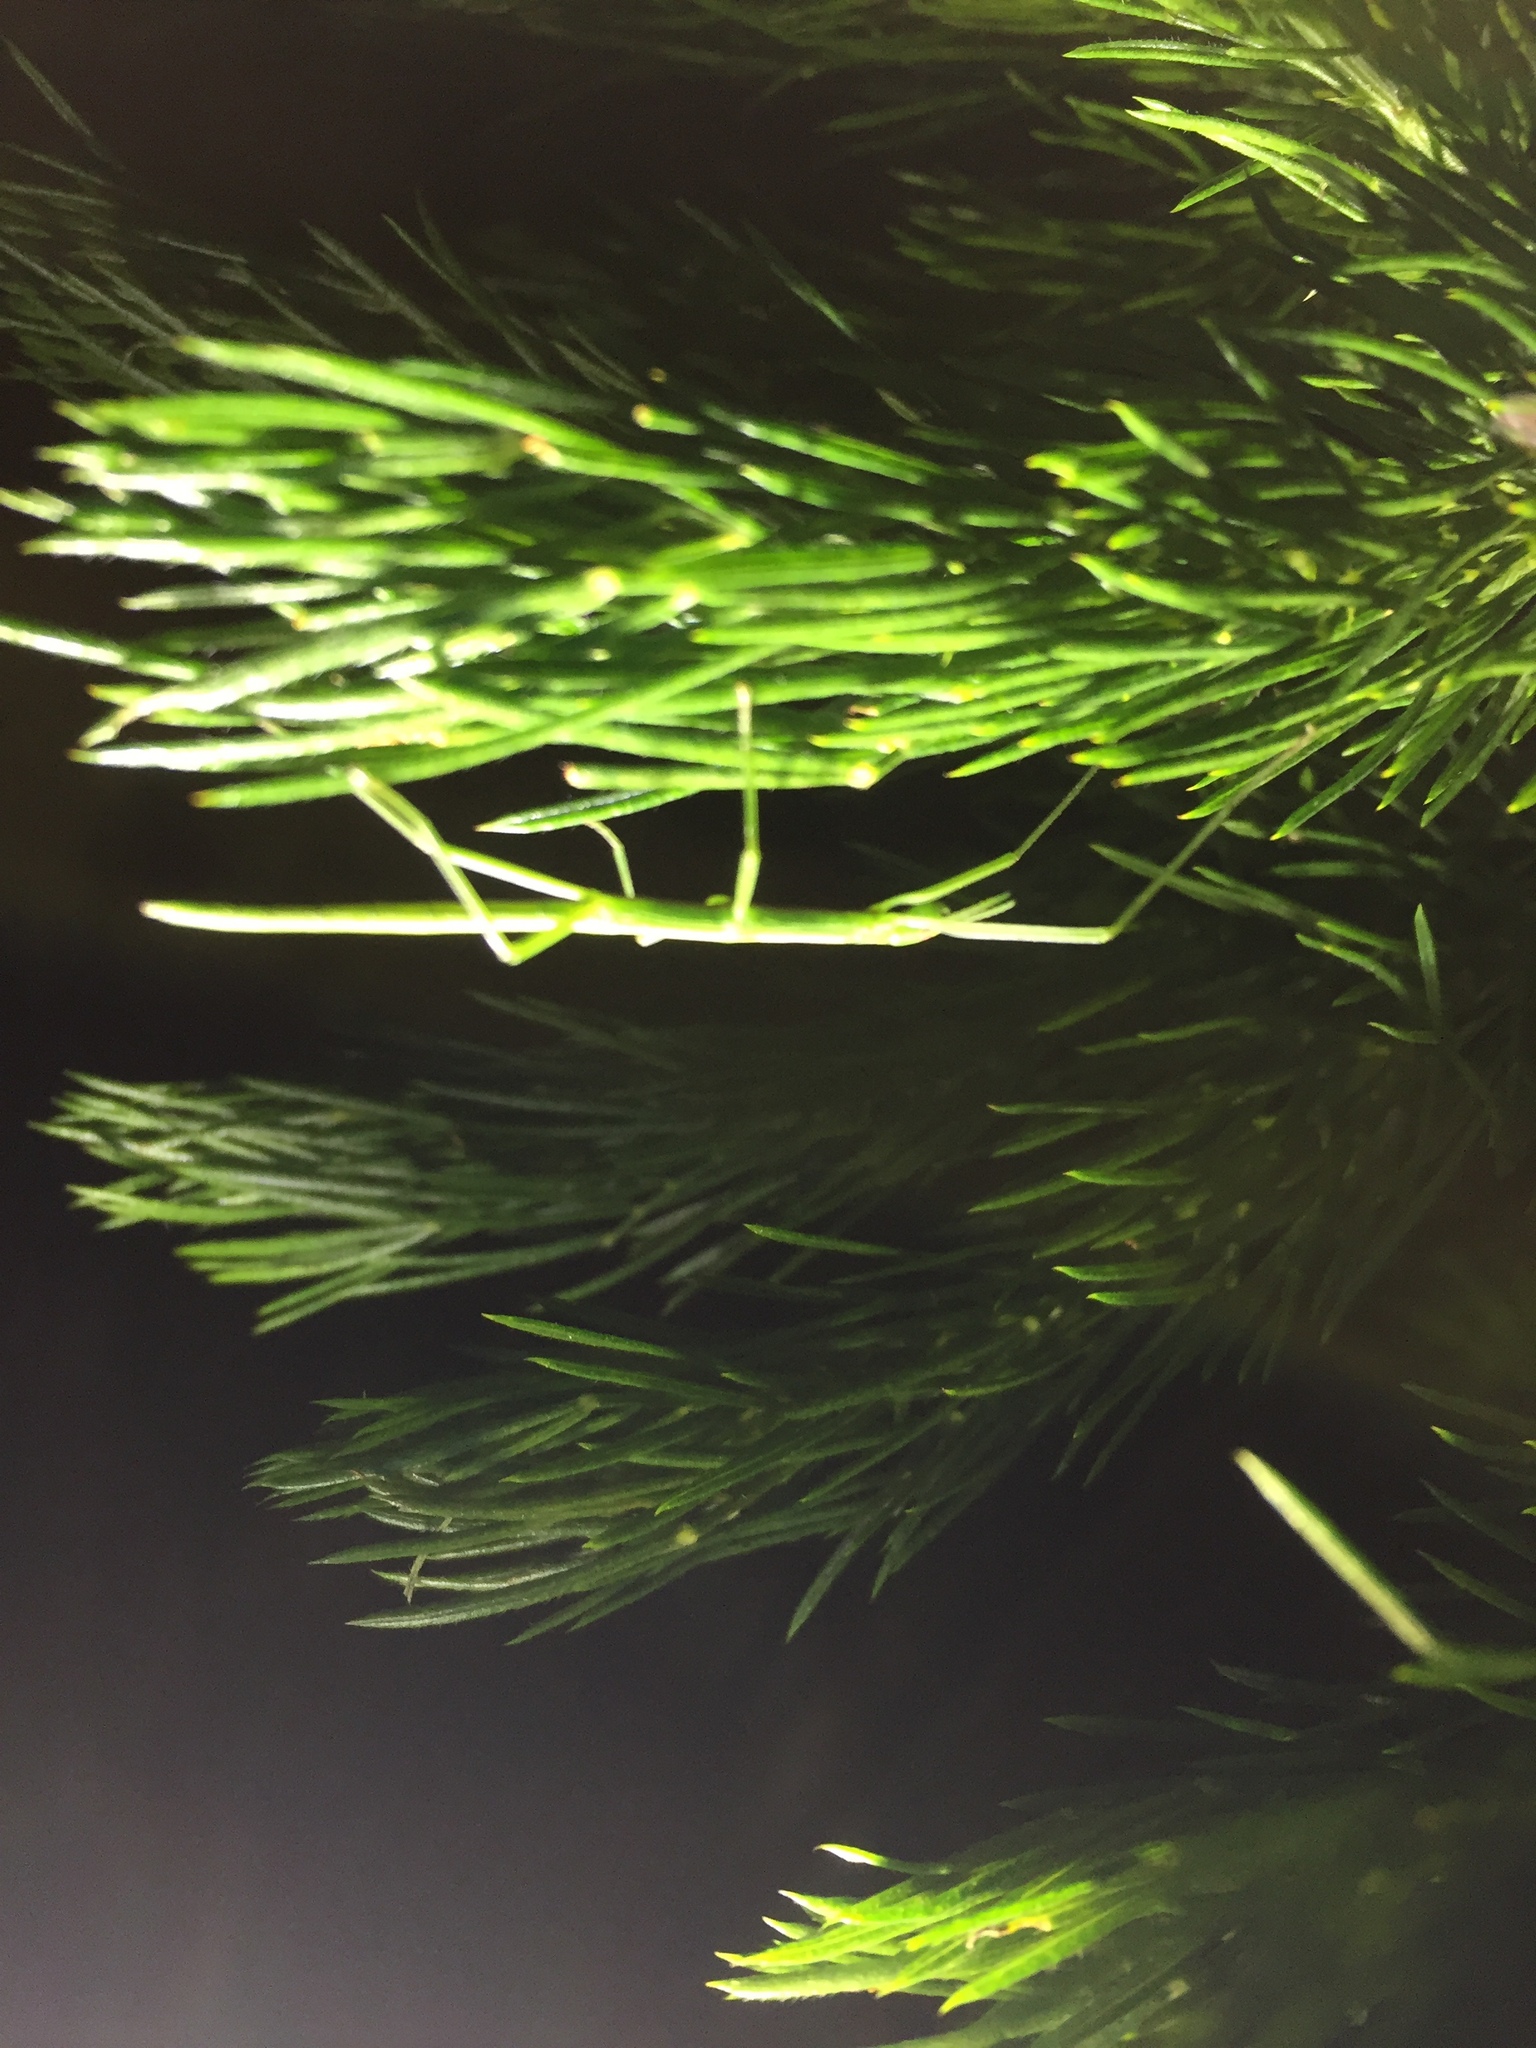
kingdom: Animalia
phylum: Arthropoda
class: Insecta
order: Phasmida
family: Bacillidae
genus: Macynia
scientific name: Macynia labiata
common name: Thunberg's stick insect
